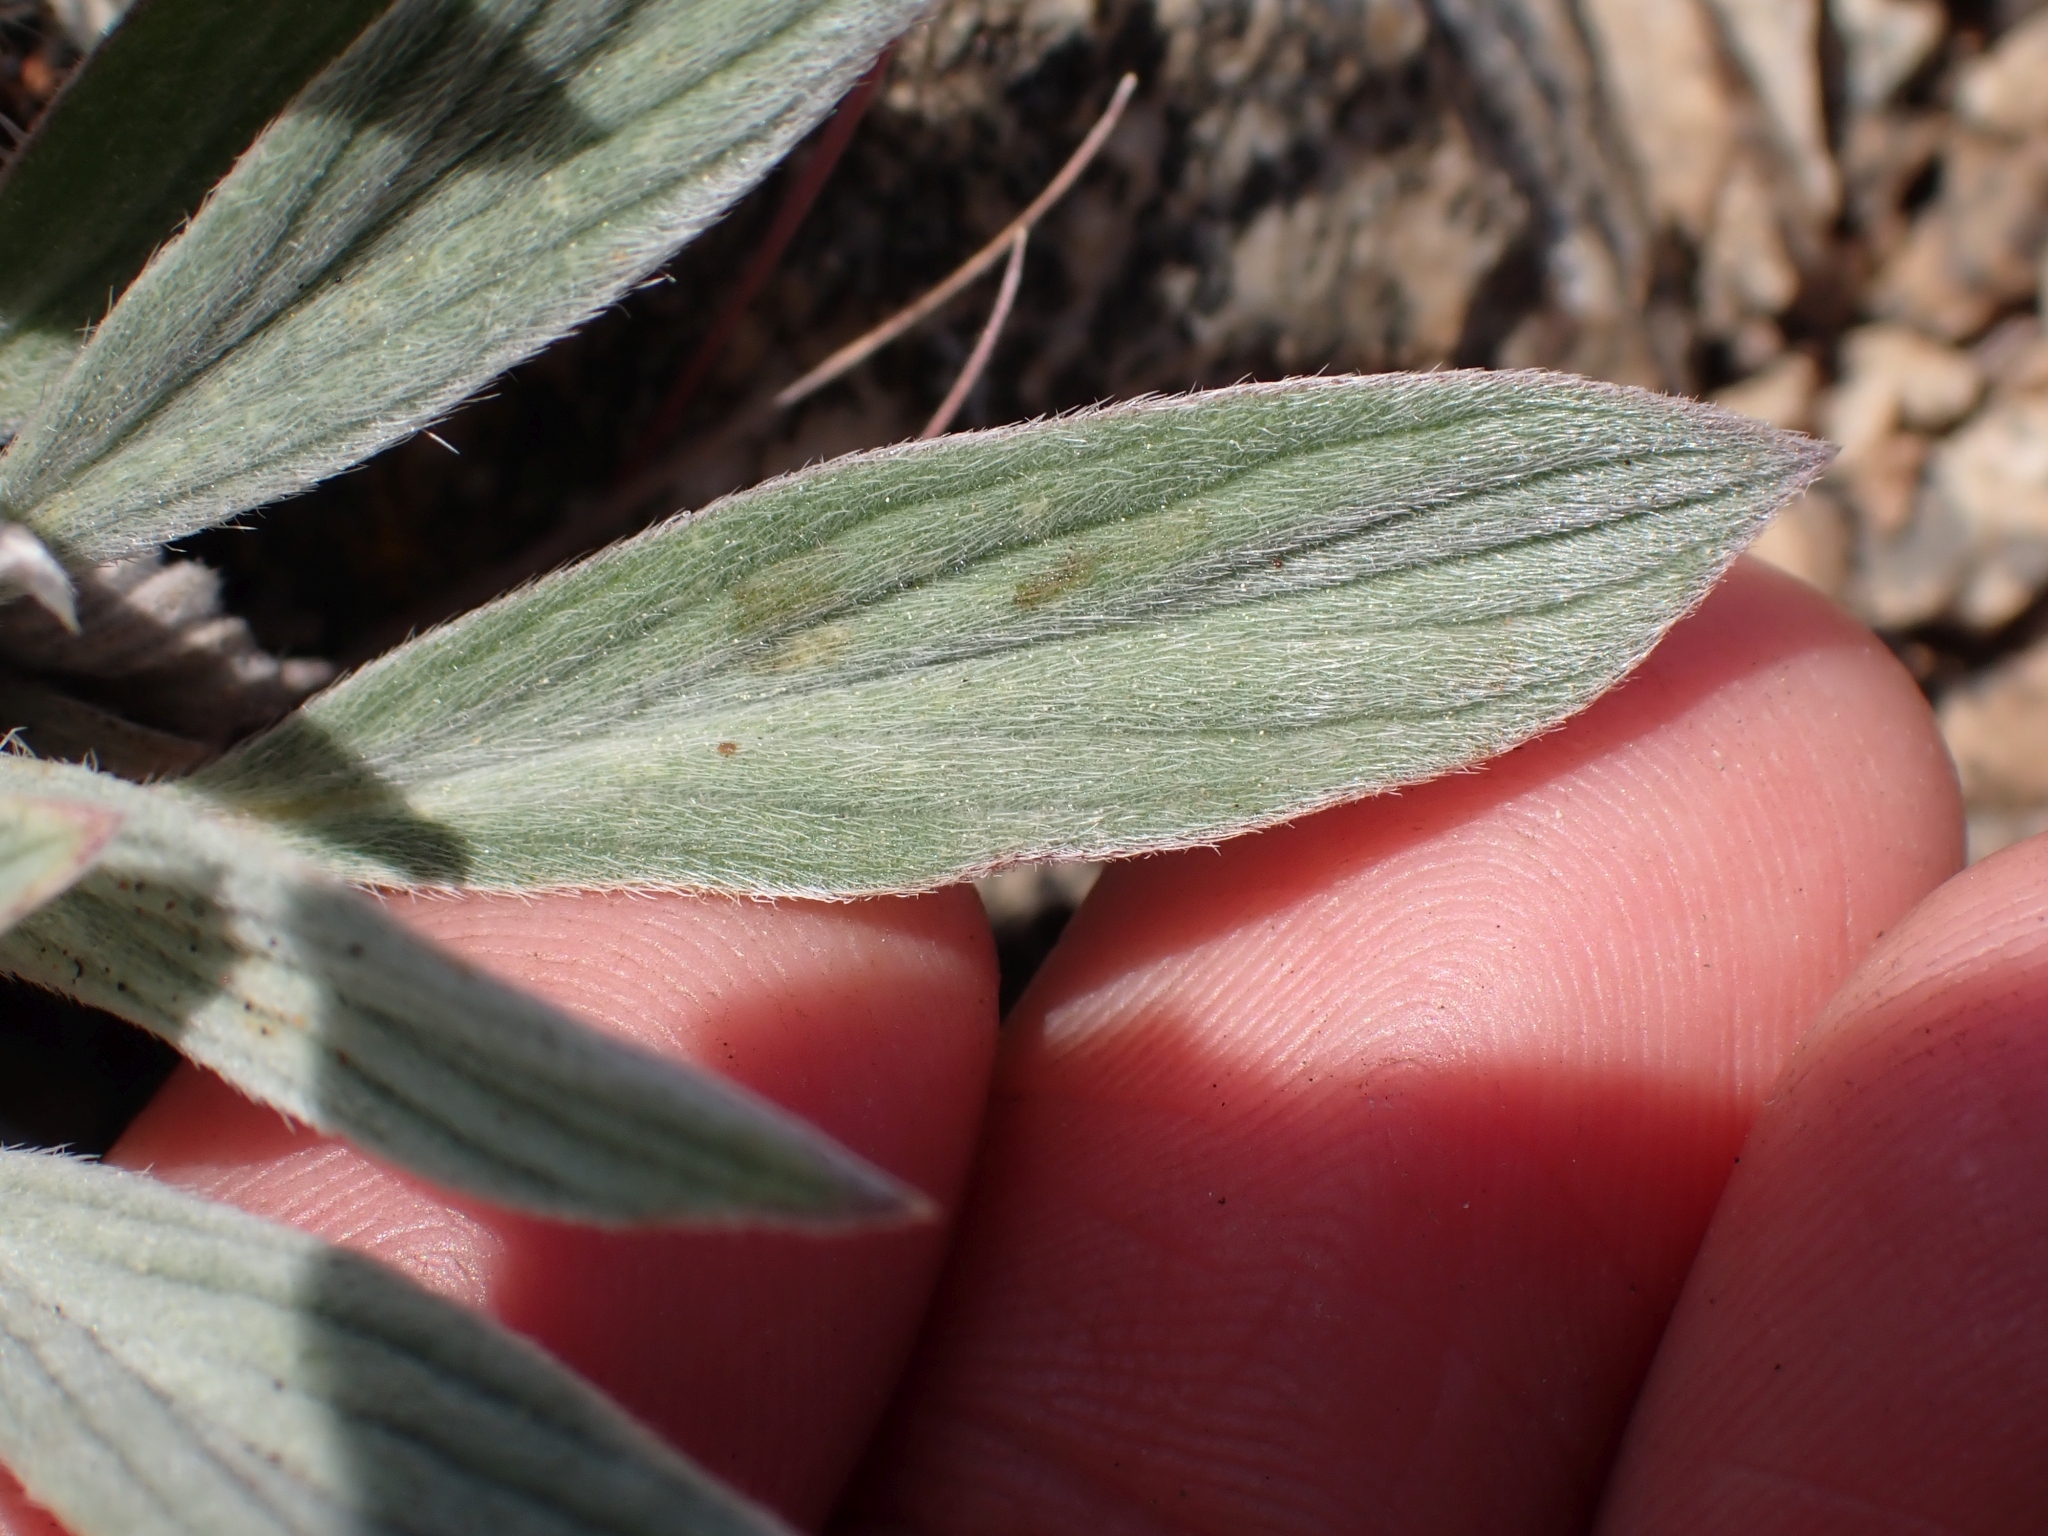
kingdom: Plantae
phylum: Tracheophyta
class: Magnoliopsida
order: Boraginales
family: Hydrophyllaceae
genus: Phacelia
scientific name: Phacelia hastata
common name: Silver-leaved phacelia
